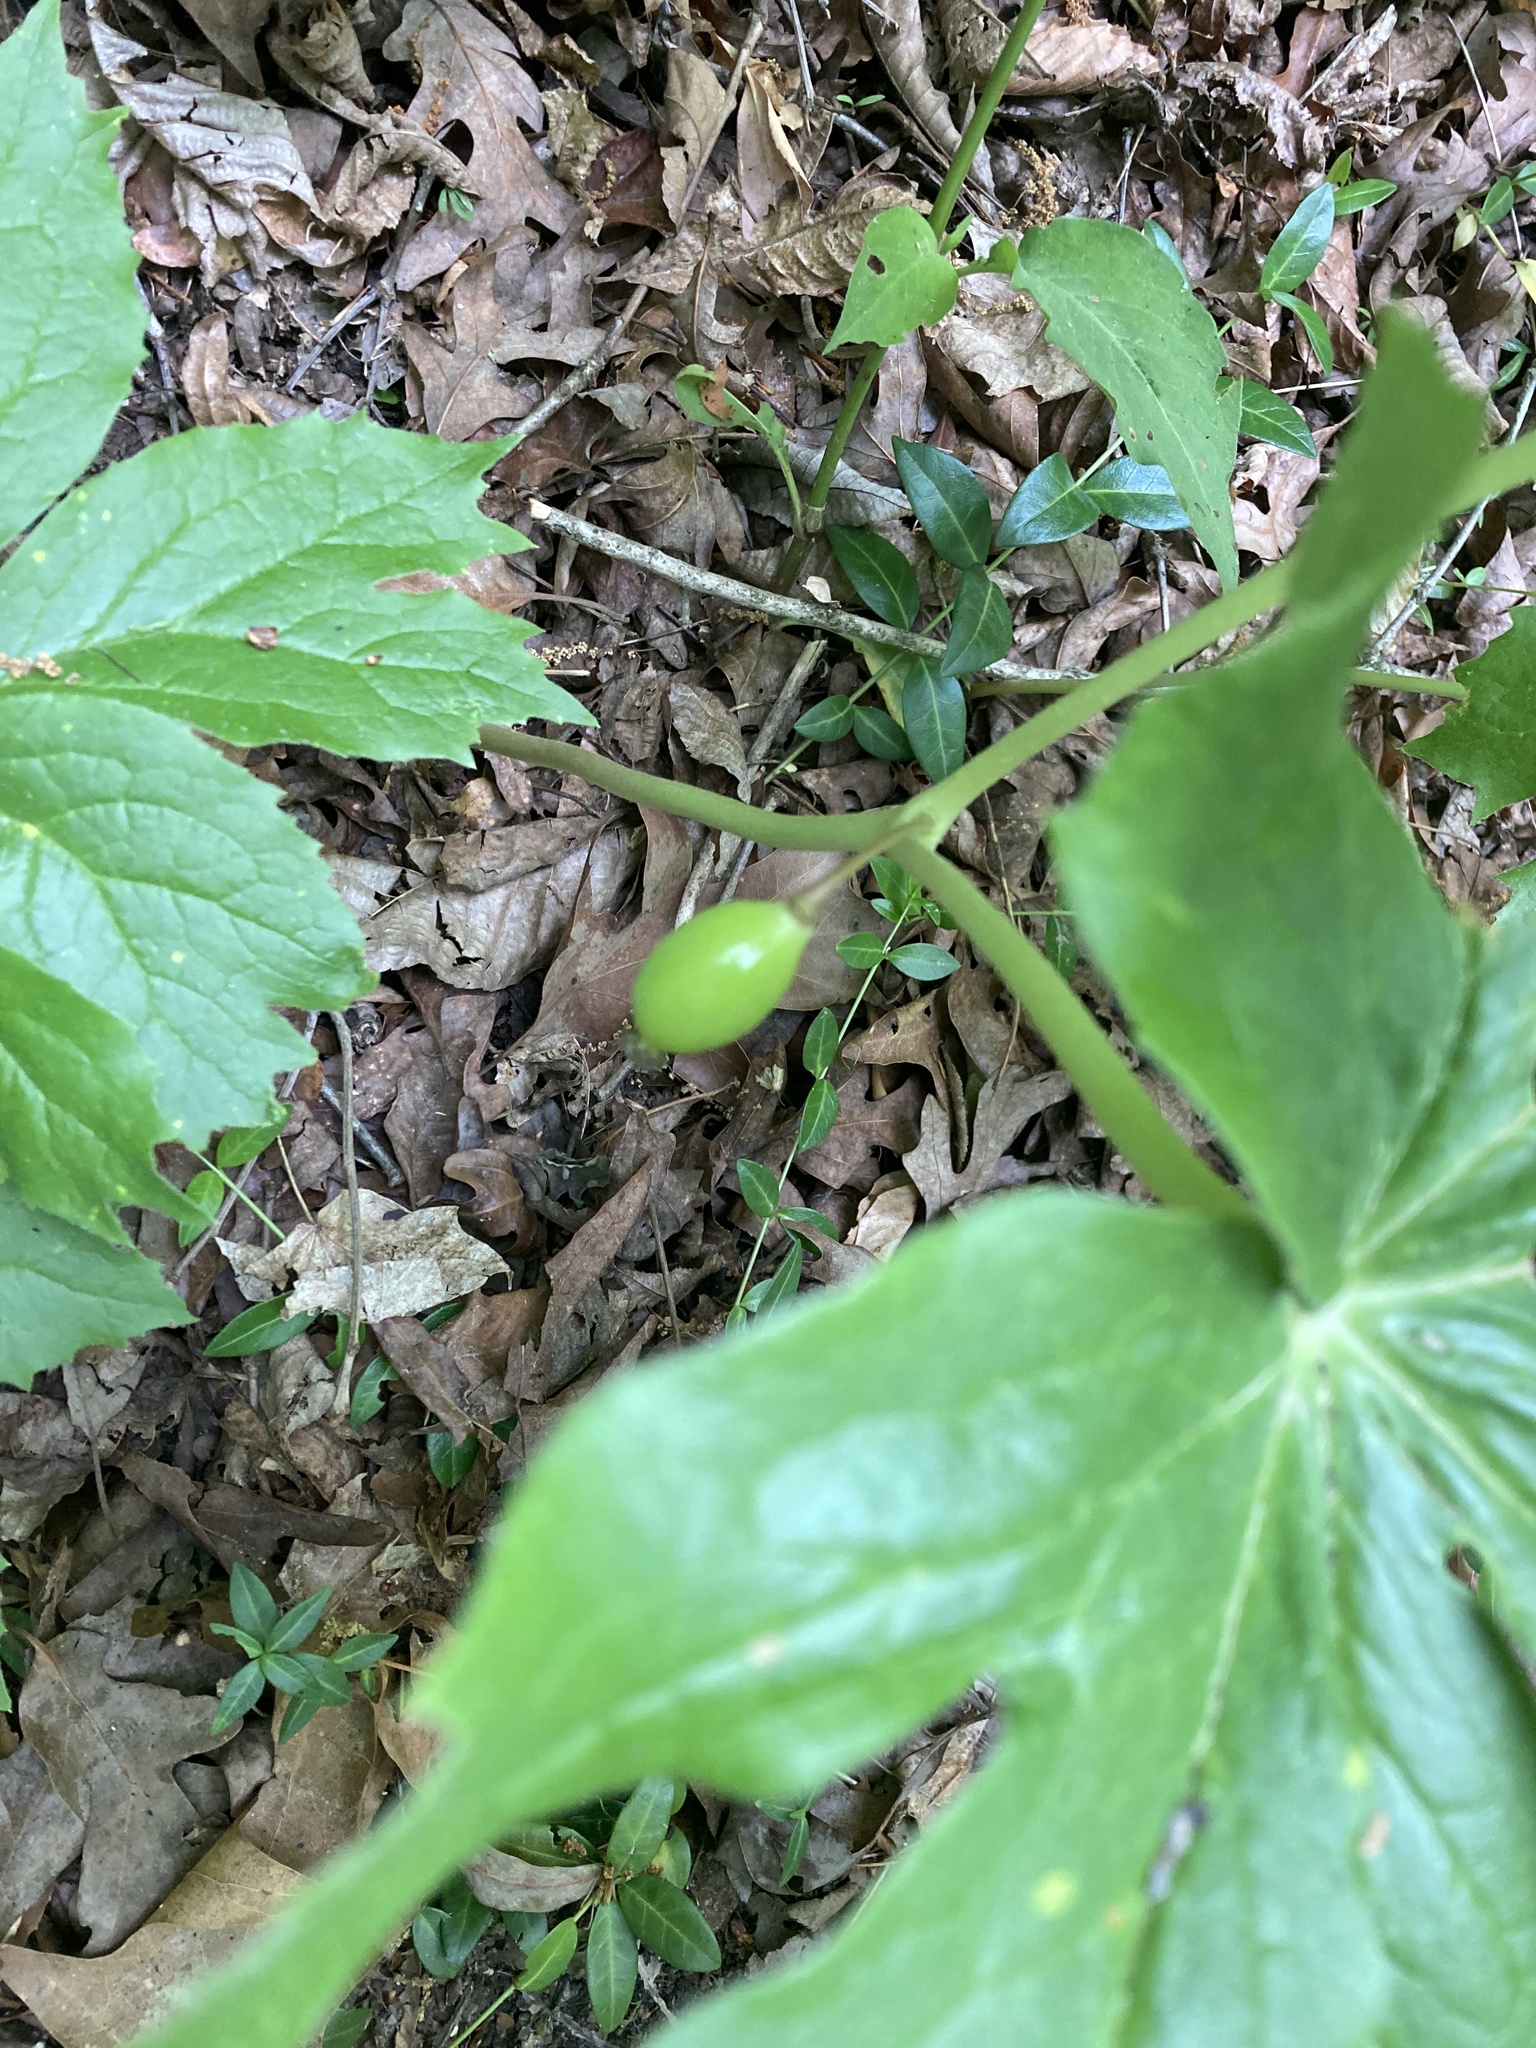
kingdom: Plantae
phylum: Tracheophyta
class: Magnoliopsida
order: Ranunculales
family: Berberidaceae
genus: Podophyllum
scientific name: Podophyllum peltatum
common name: Wild mandrake
